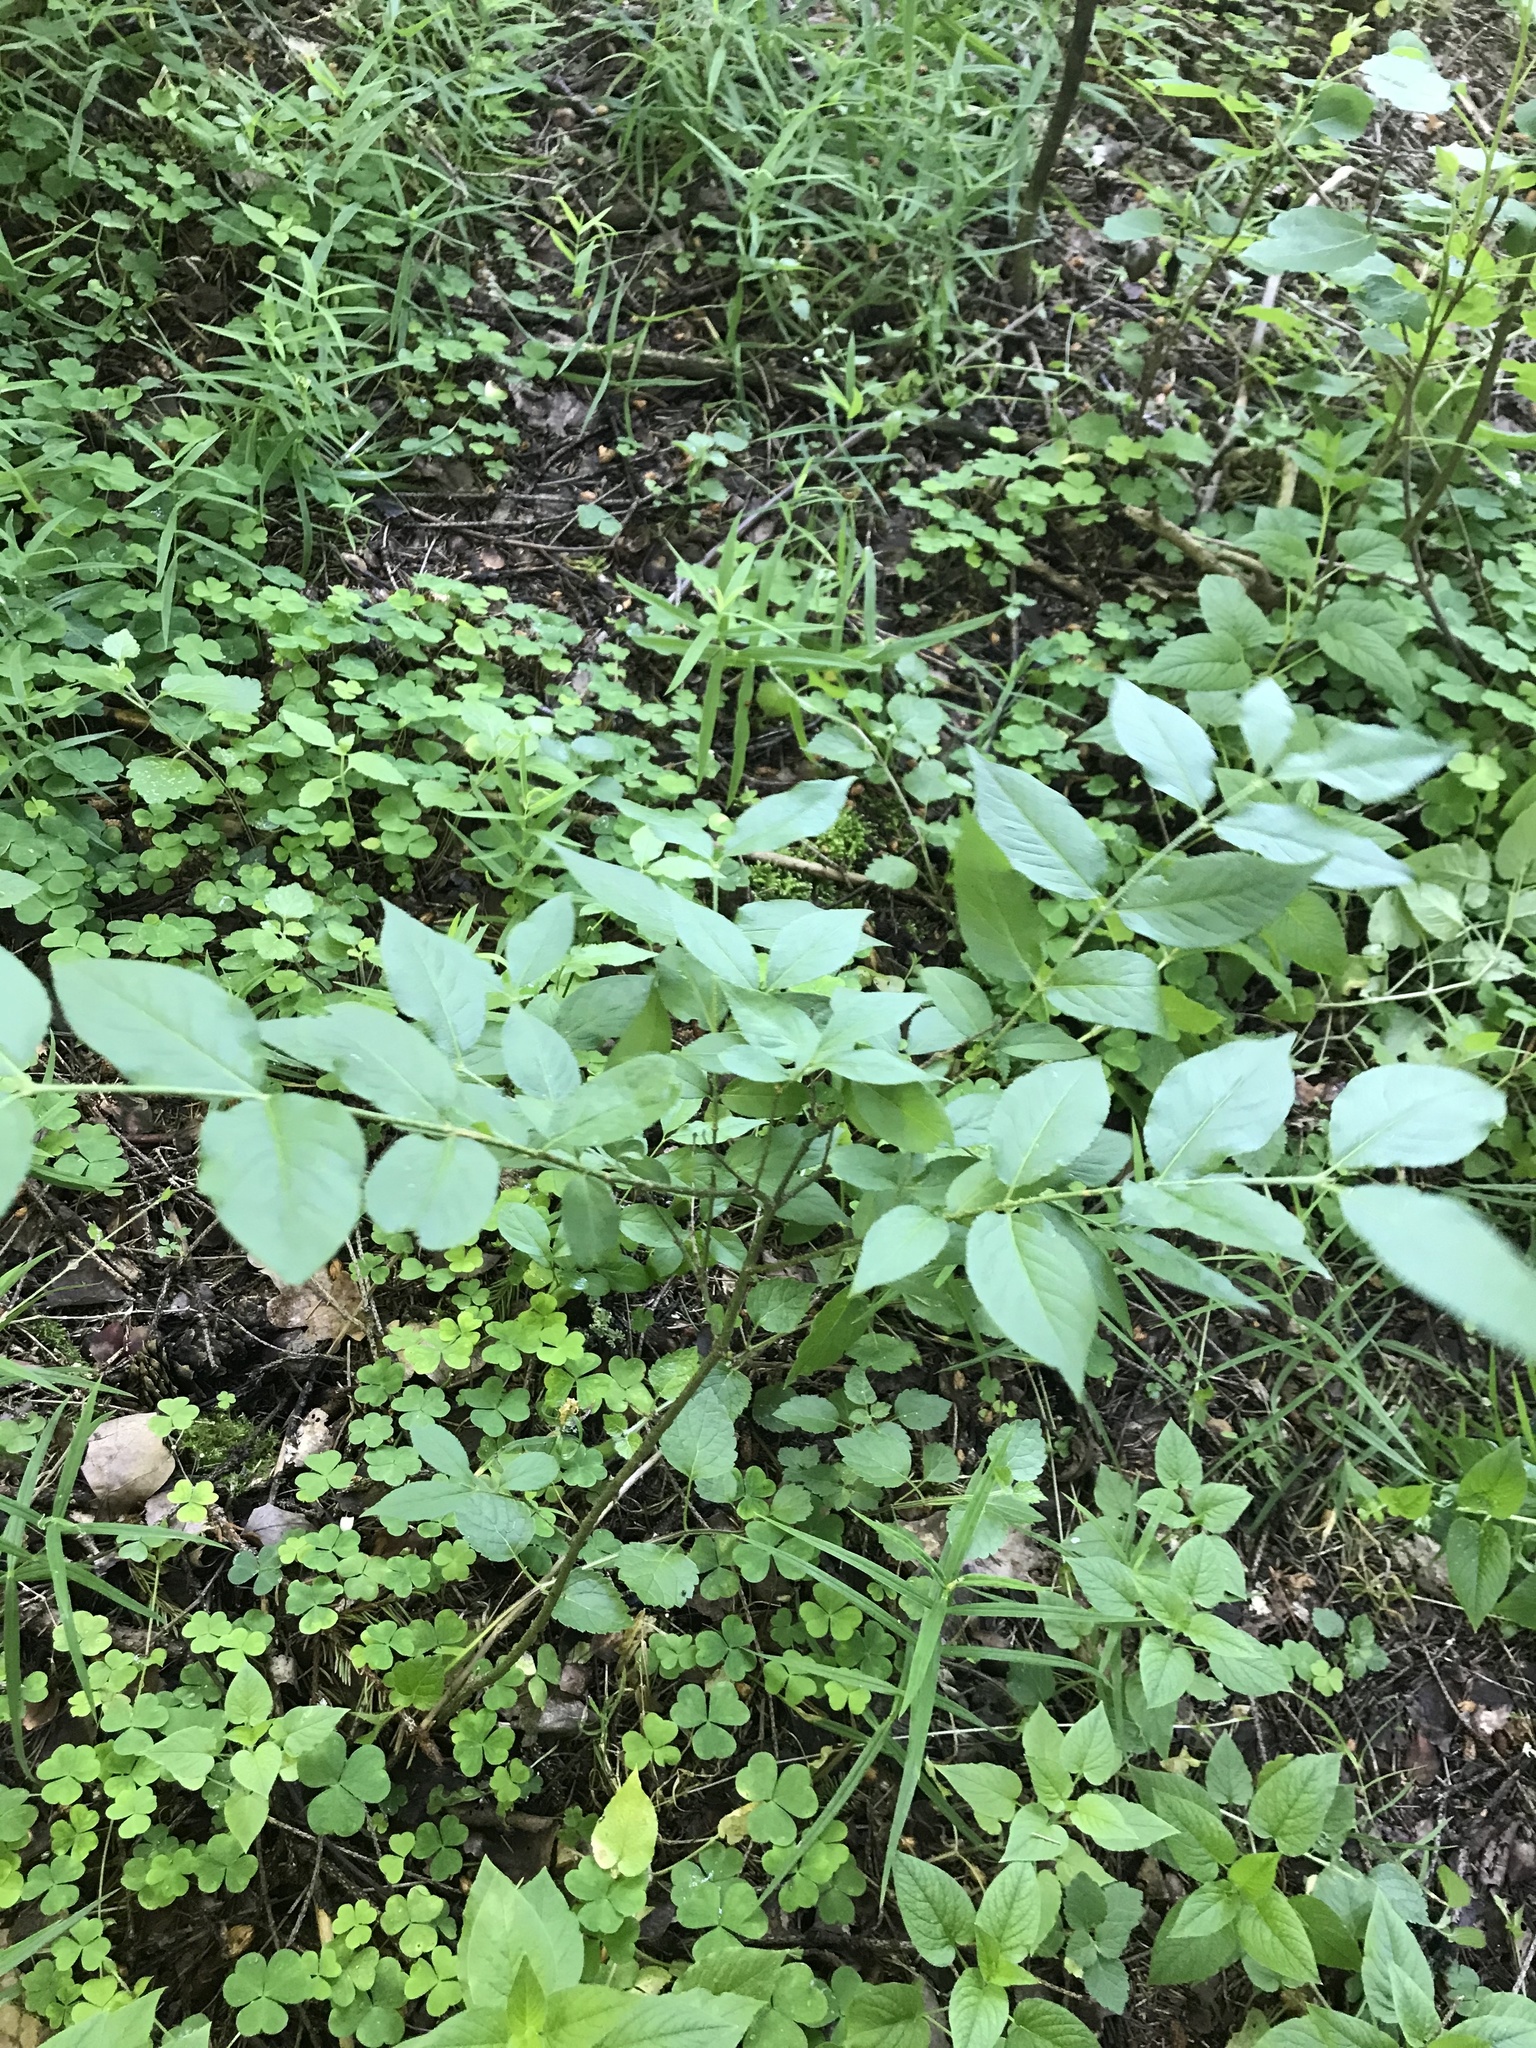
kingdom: Plantae
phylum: Tracheophyta
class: Magnoliopsida
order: Celastrales
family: Celastraceae
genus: Euonymus
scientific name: Euonymus verrucosus
